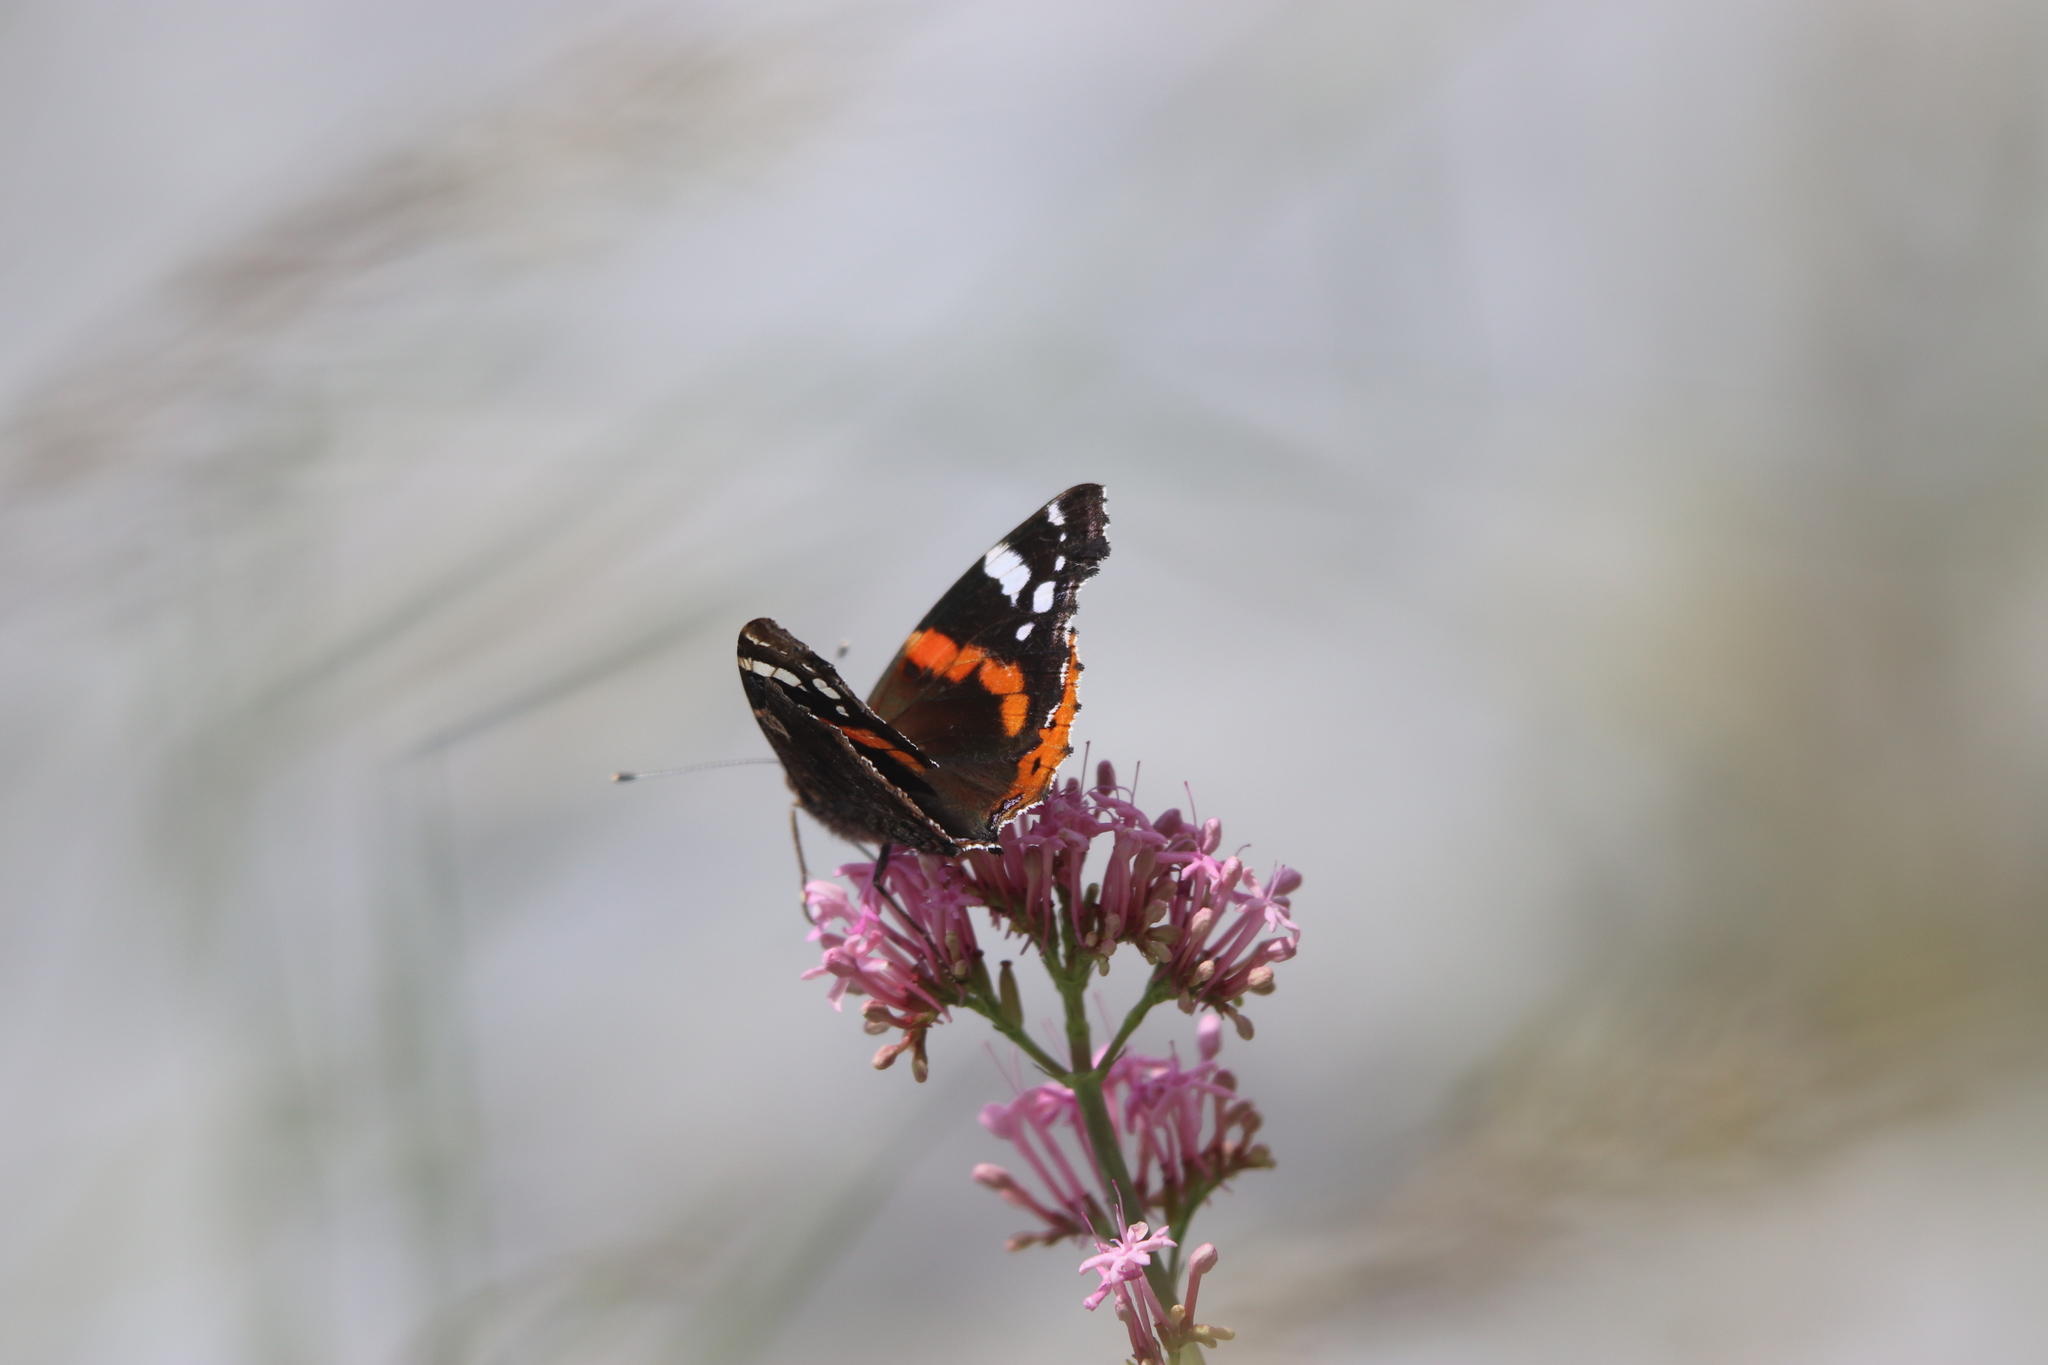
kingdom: Animalia
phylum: Arthropoda
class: Insecta
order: Lepidoptera
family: Nymphalidae
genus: Vanessa
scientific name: Vanessa atalanta
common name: Red admiral
